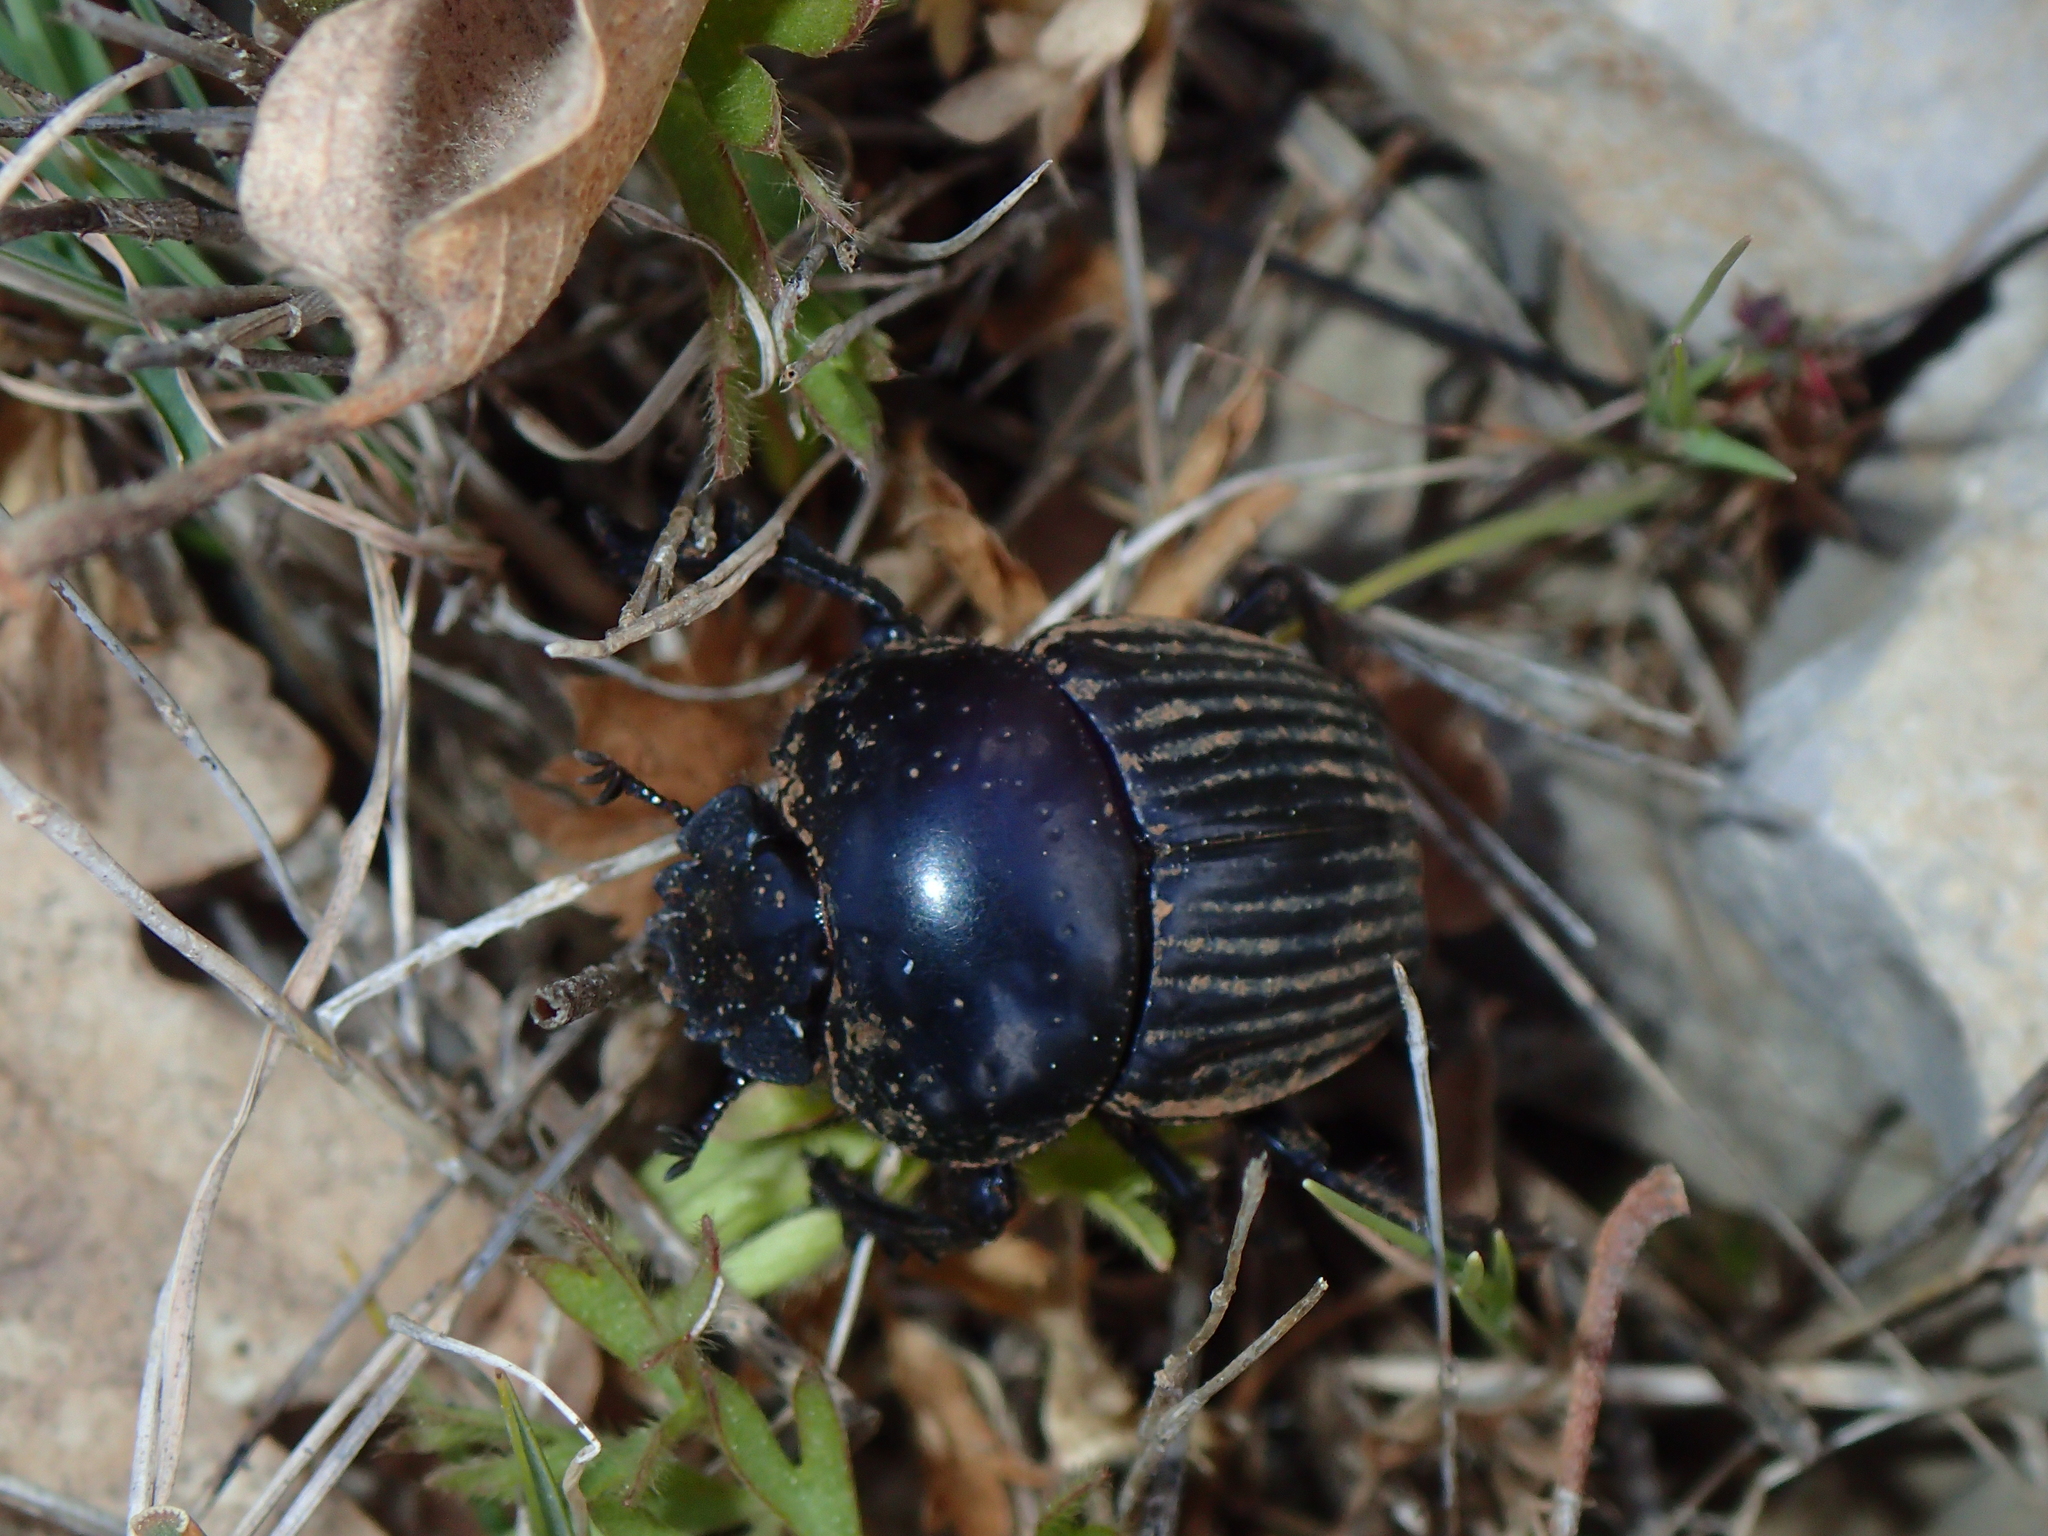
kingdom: Animalia
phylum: Arthropoda
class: Insecta
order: Coleoptera
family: Scarabaeidae
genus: Ateuchetus
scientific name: Ateuchetus laticollis
